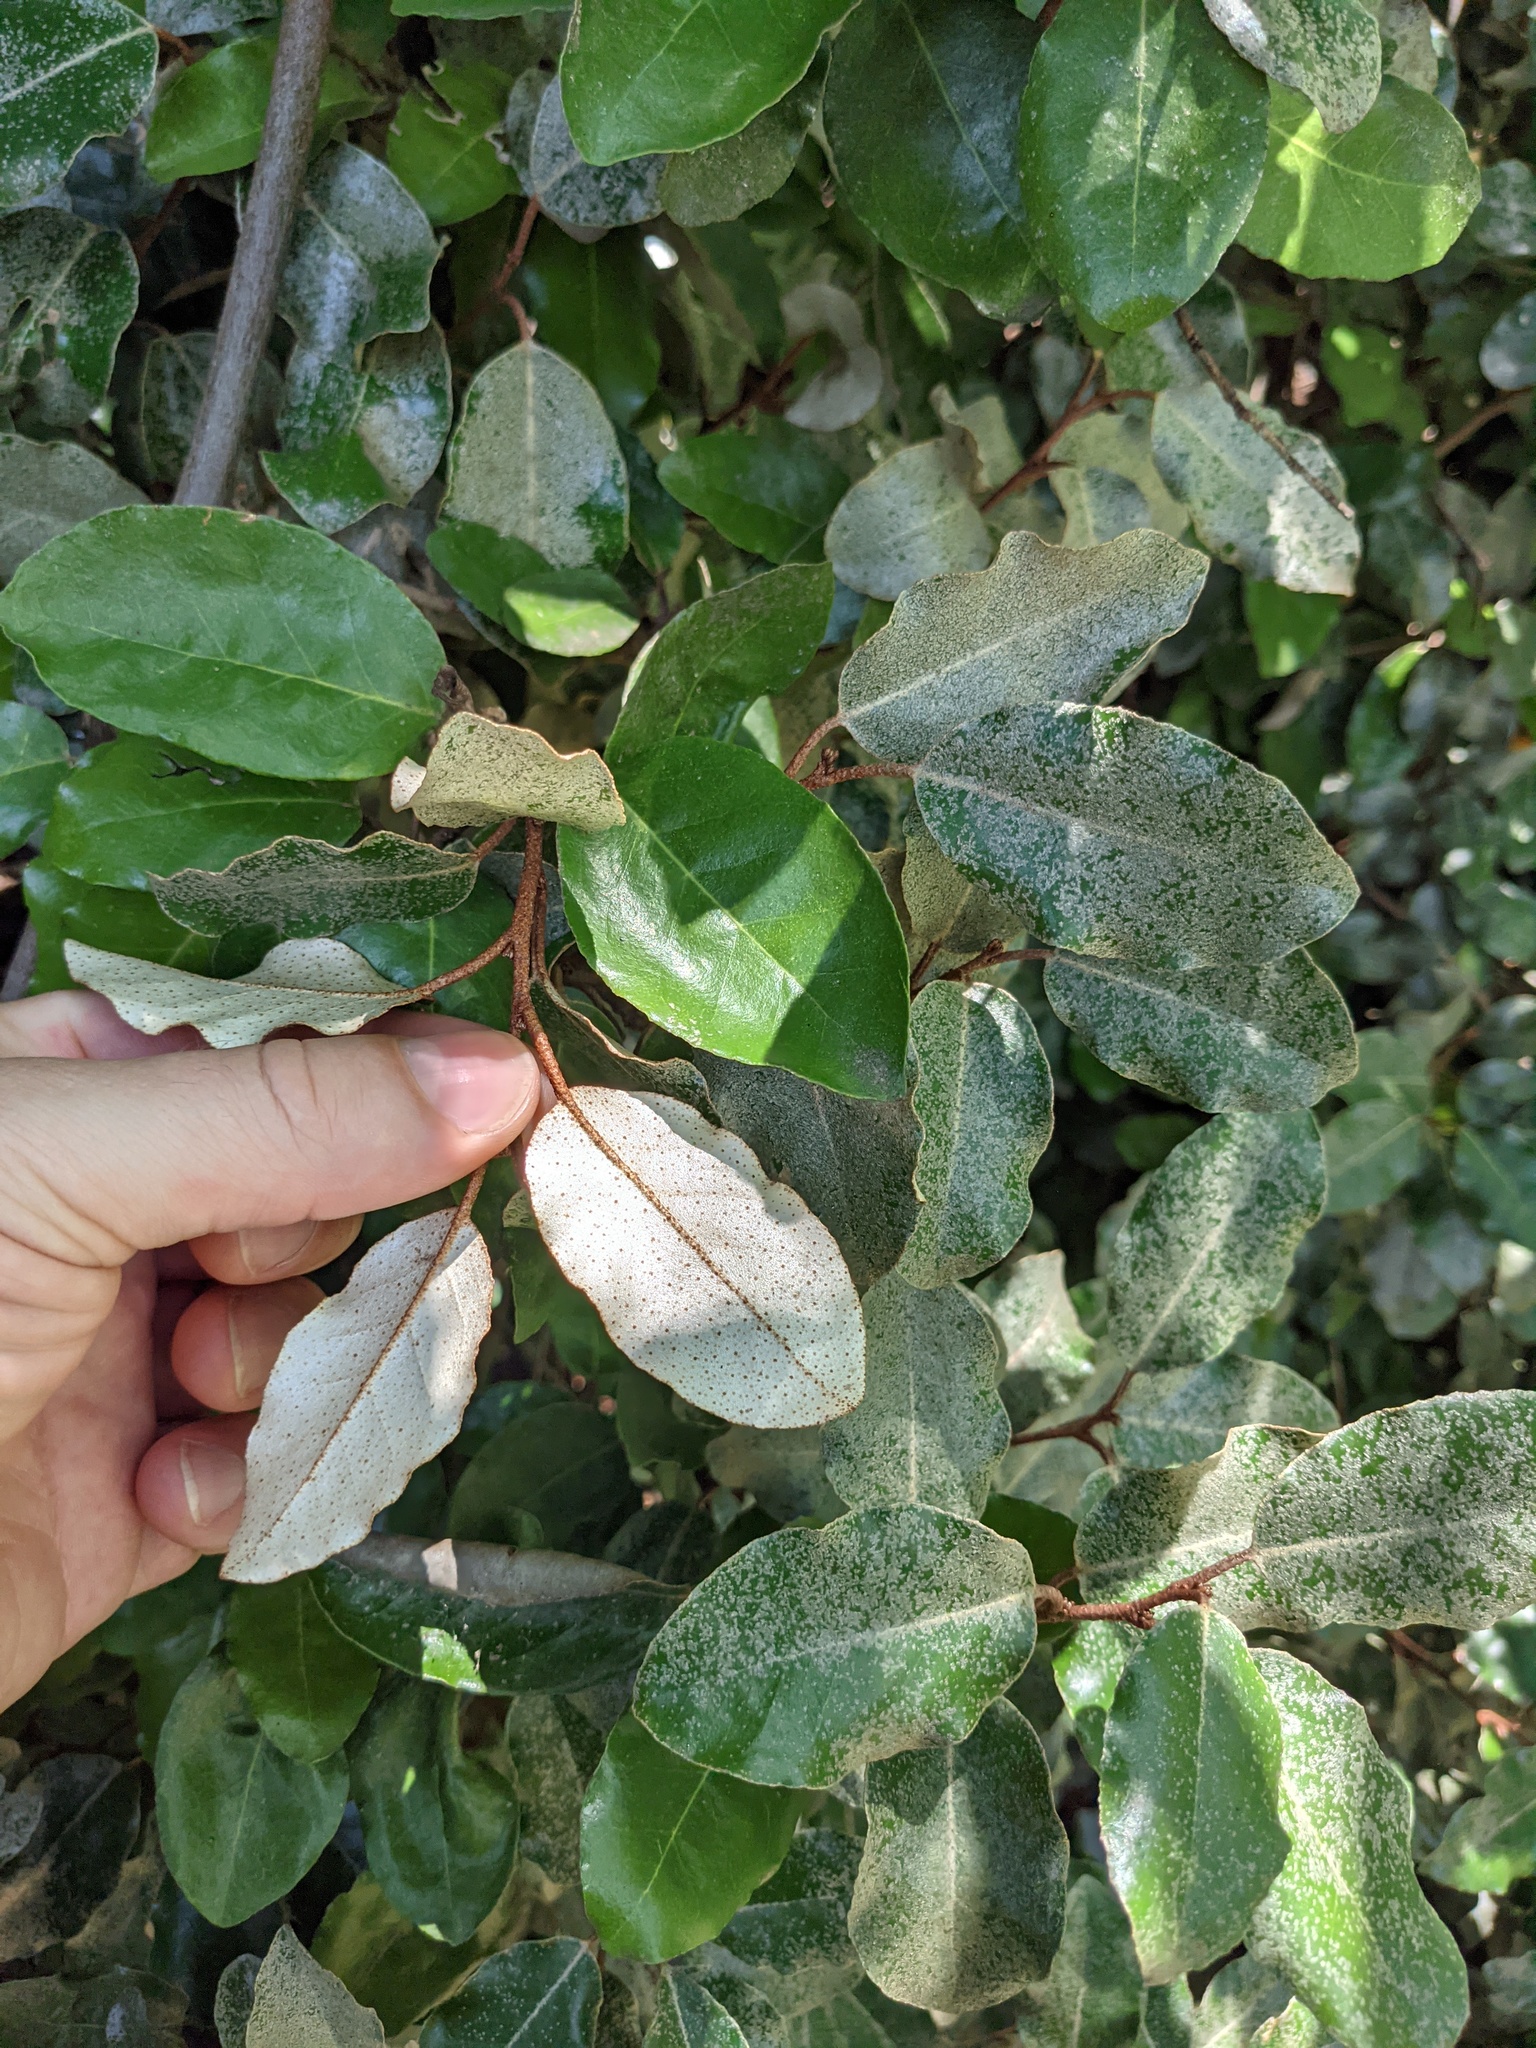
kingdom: Plantae
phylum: Tracheophyta
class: Magnoliopsida
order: Rosales
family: Elaeagnaceae
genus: Elaeagnus
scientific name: Elaeagnus pungens
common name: Spiny oleaster
